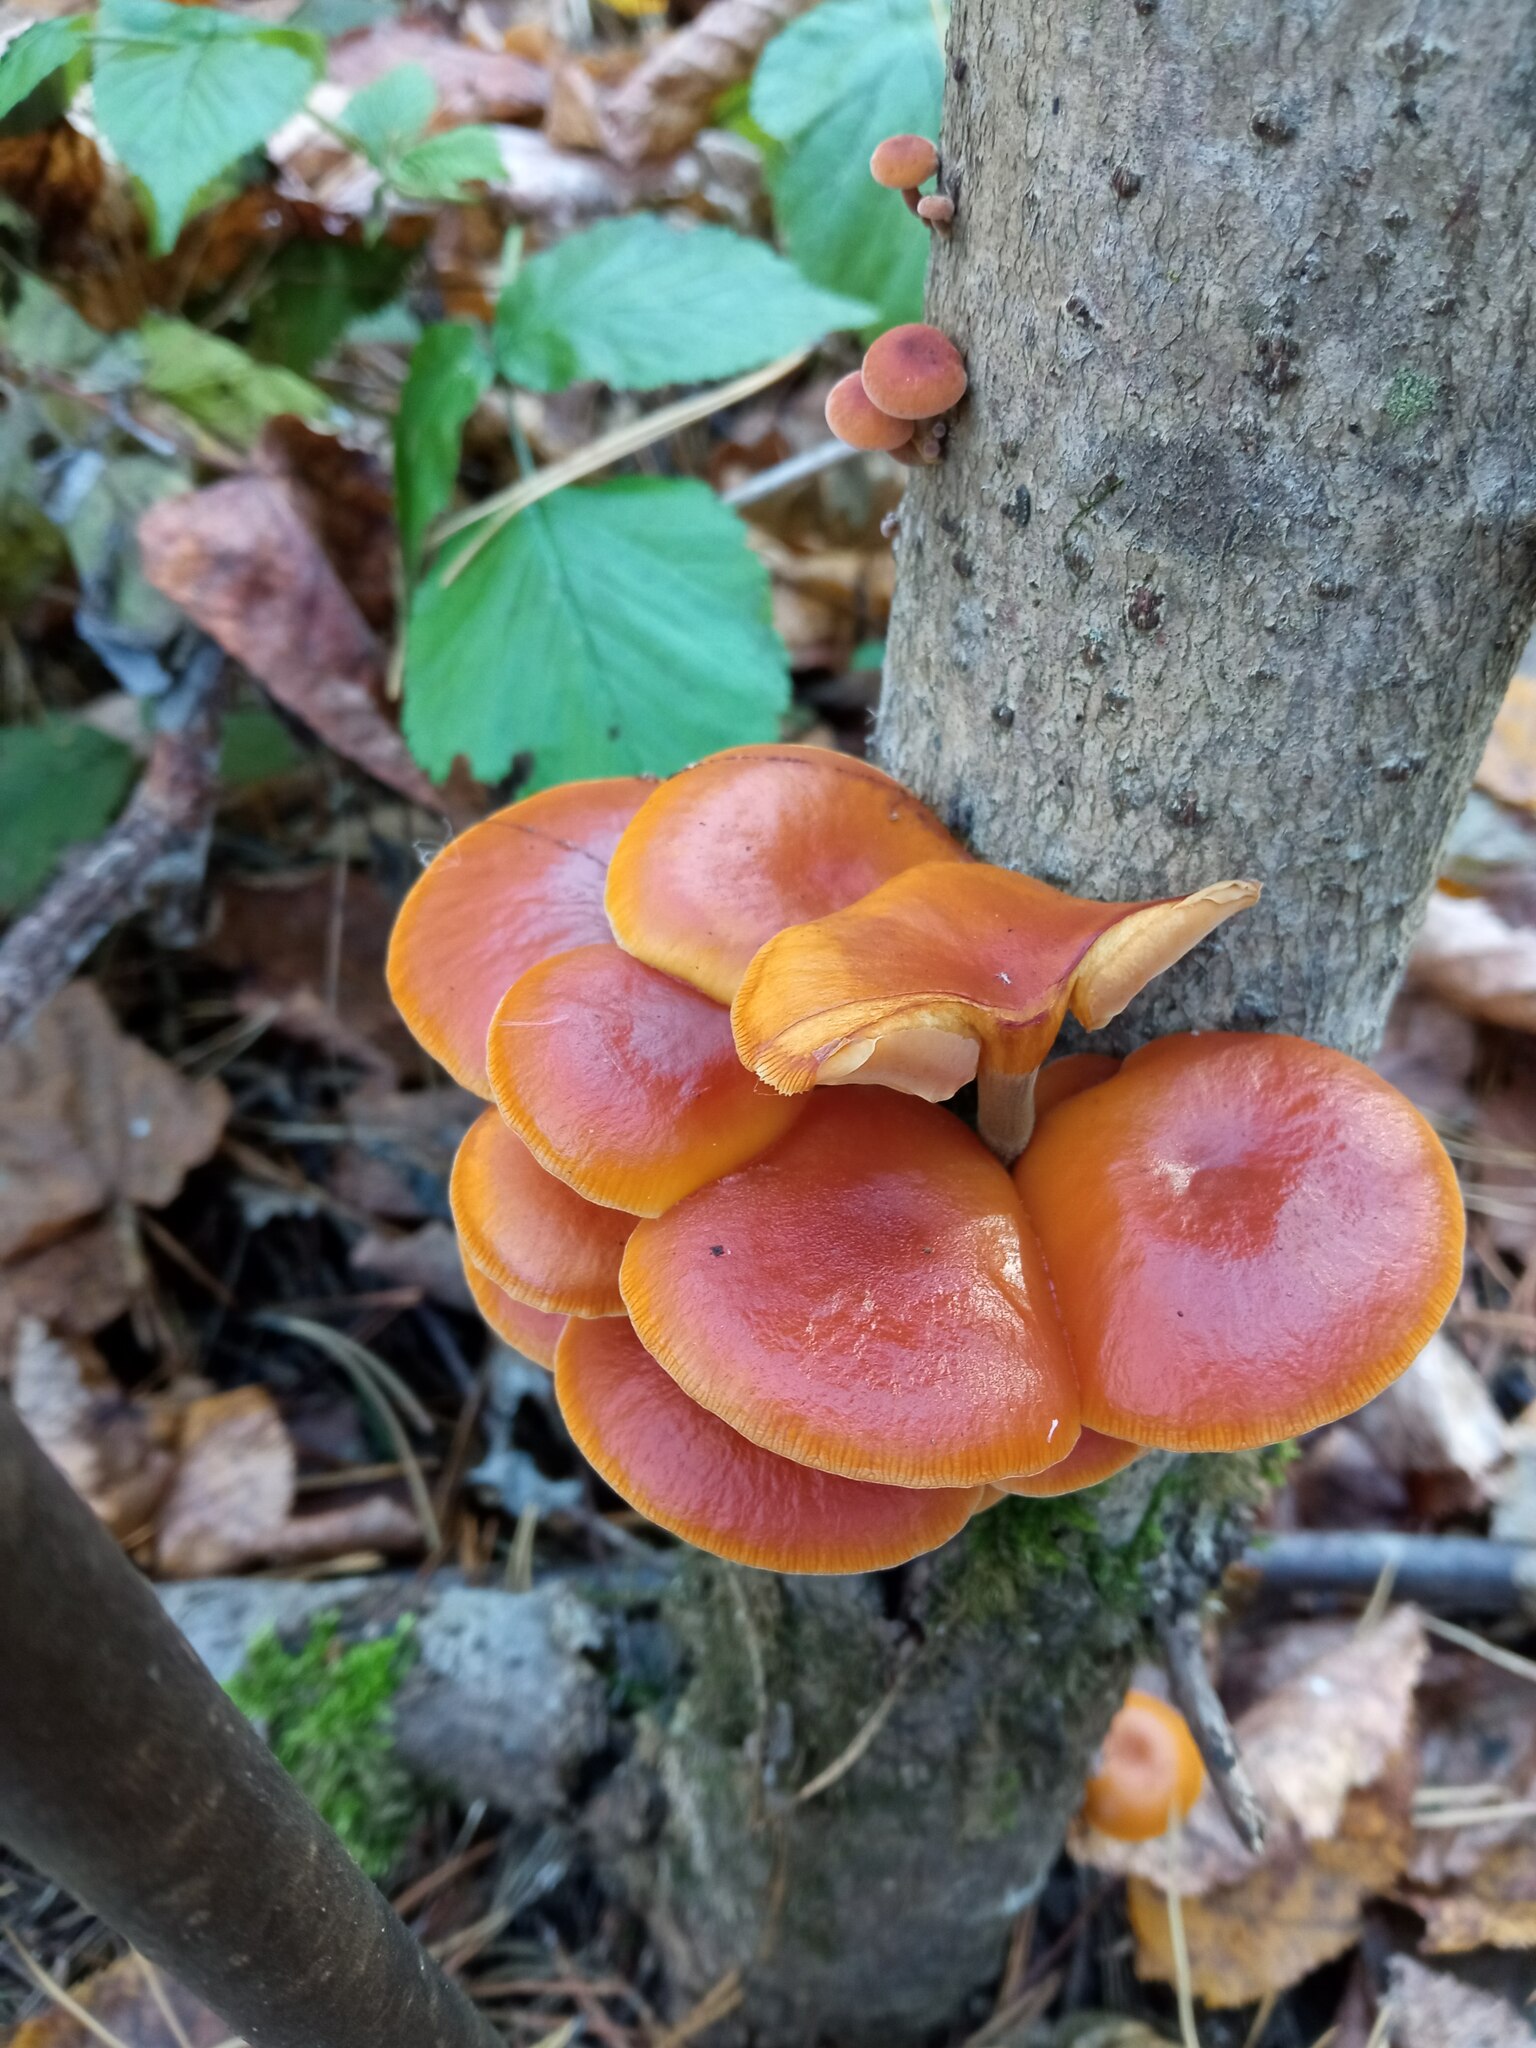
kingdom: Fungi
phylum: Basidiomycota
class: Agaricomycetes
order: Agaricales
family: Physalacriaceae
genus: Flammulina
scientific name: Flammulina
